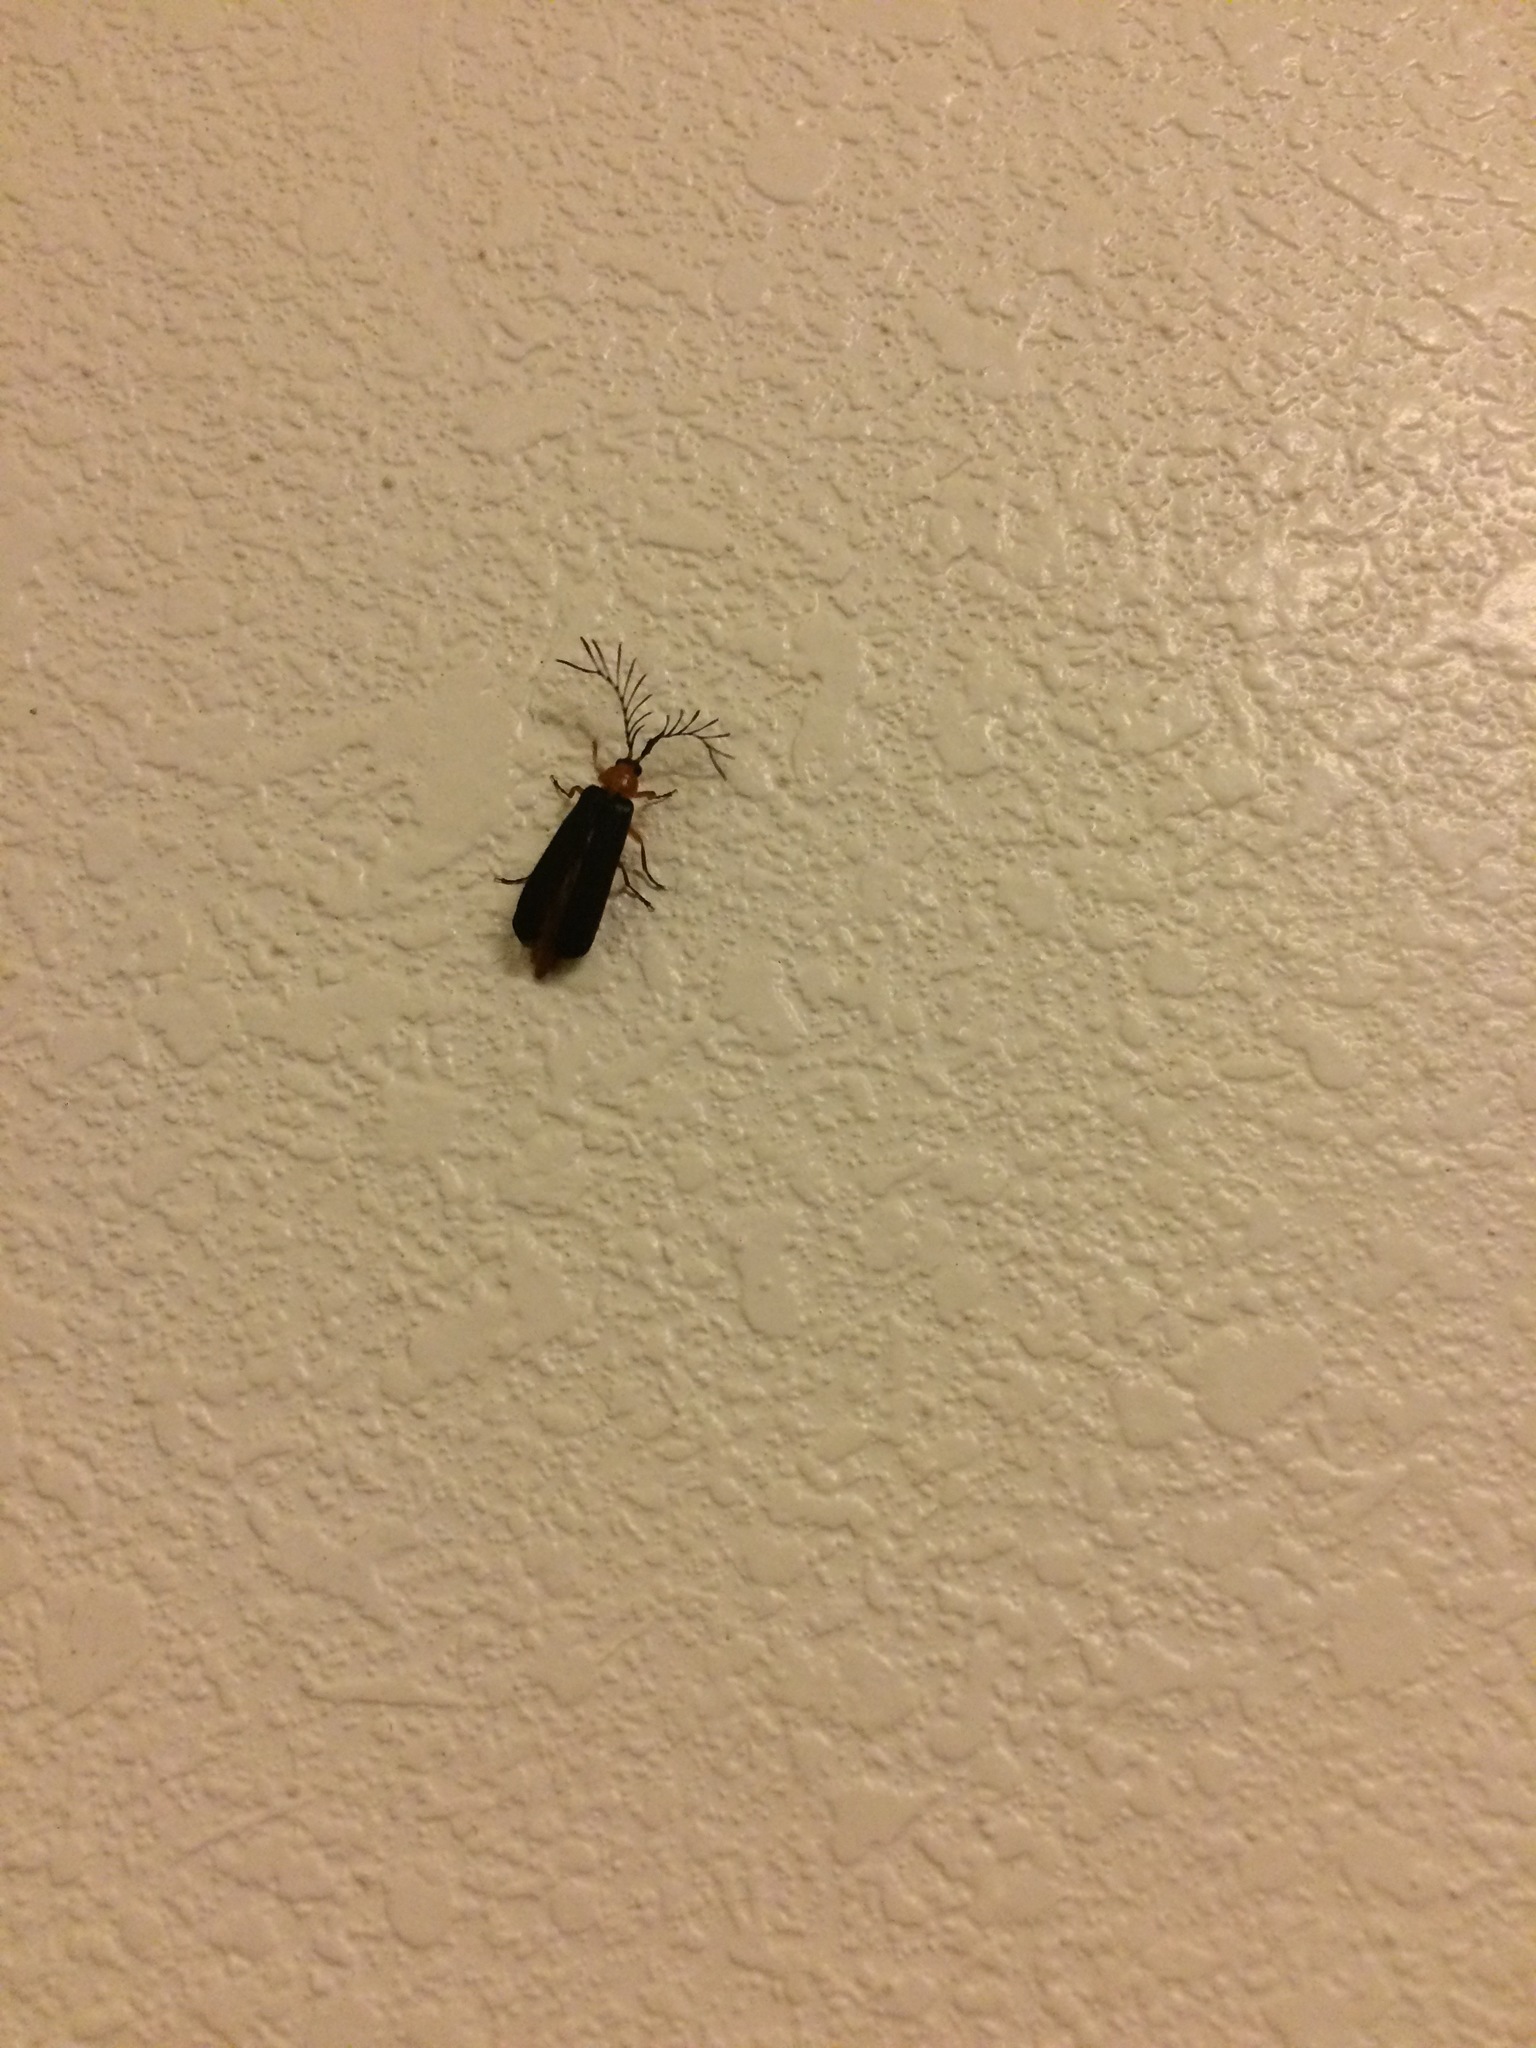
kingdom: Animalia
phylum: Arthropoda
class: Insecta
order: Coleoptera
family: Lampyridae
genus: Pterotus
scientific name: Pterotus obscuripennis
